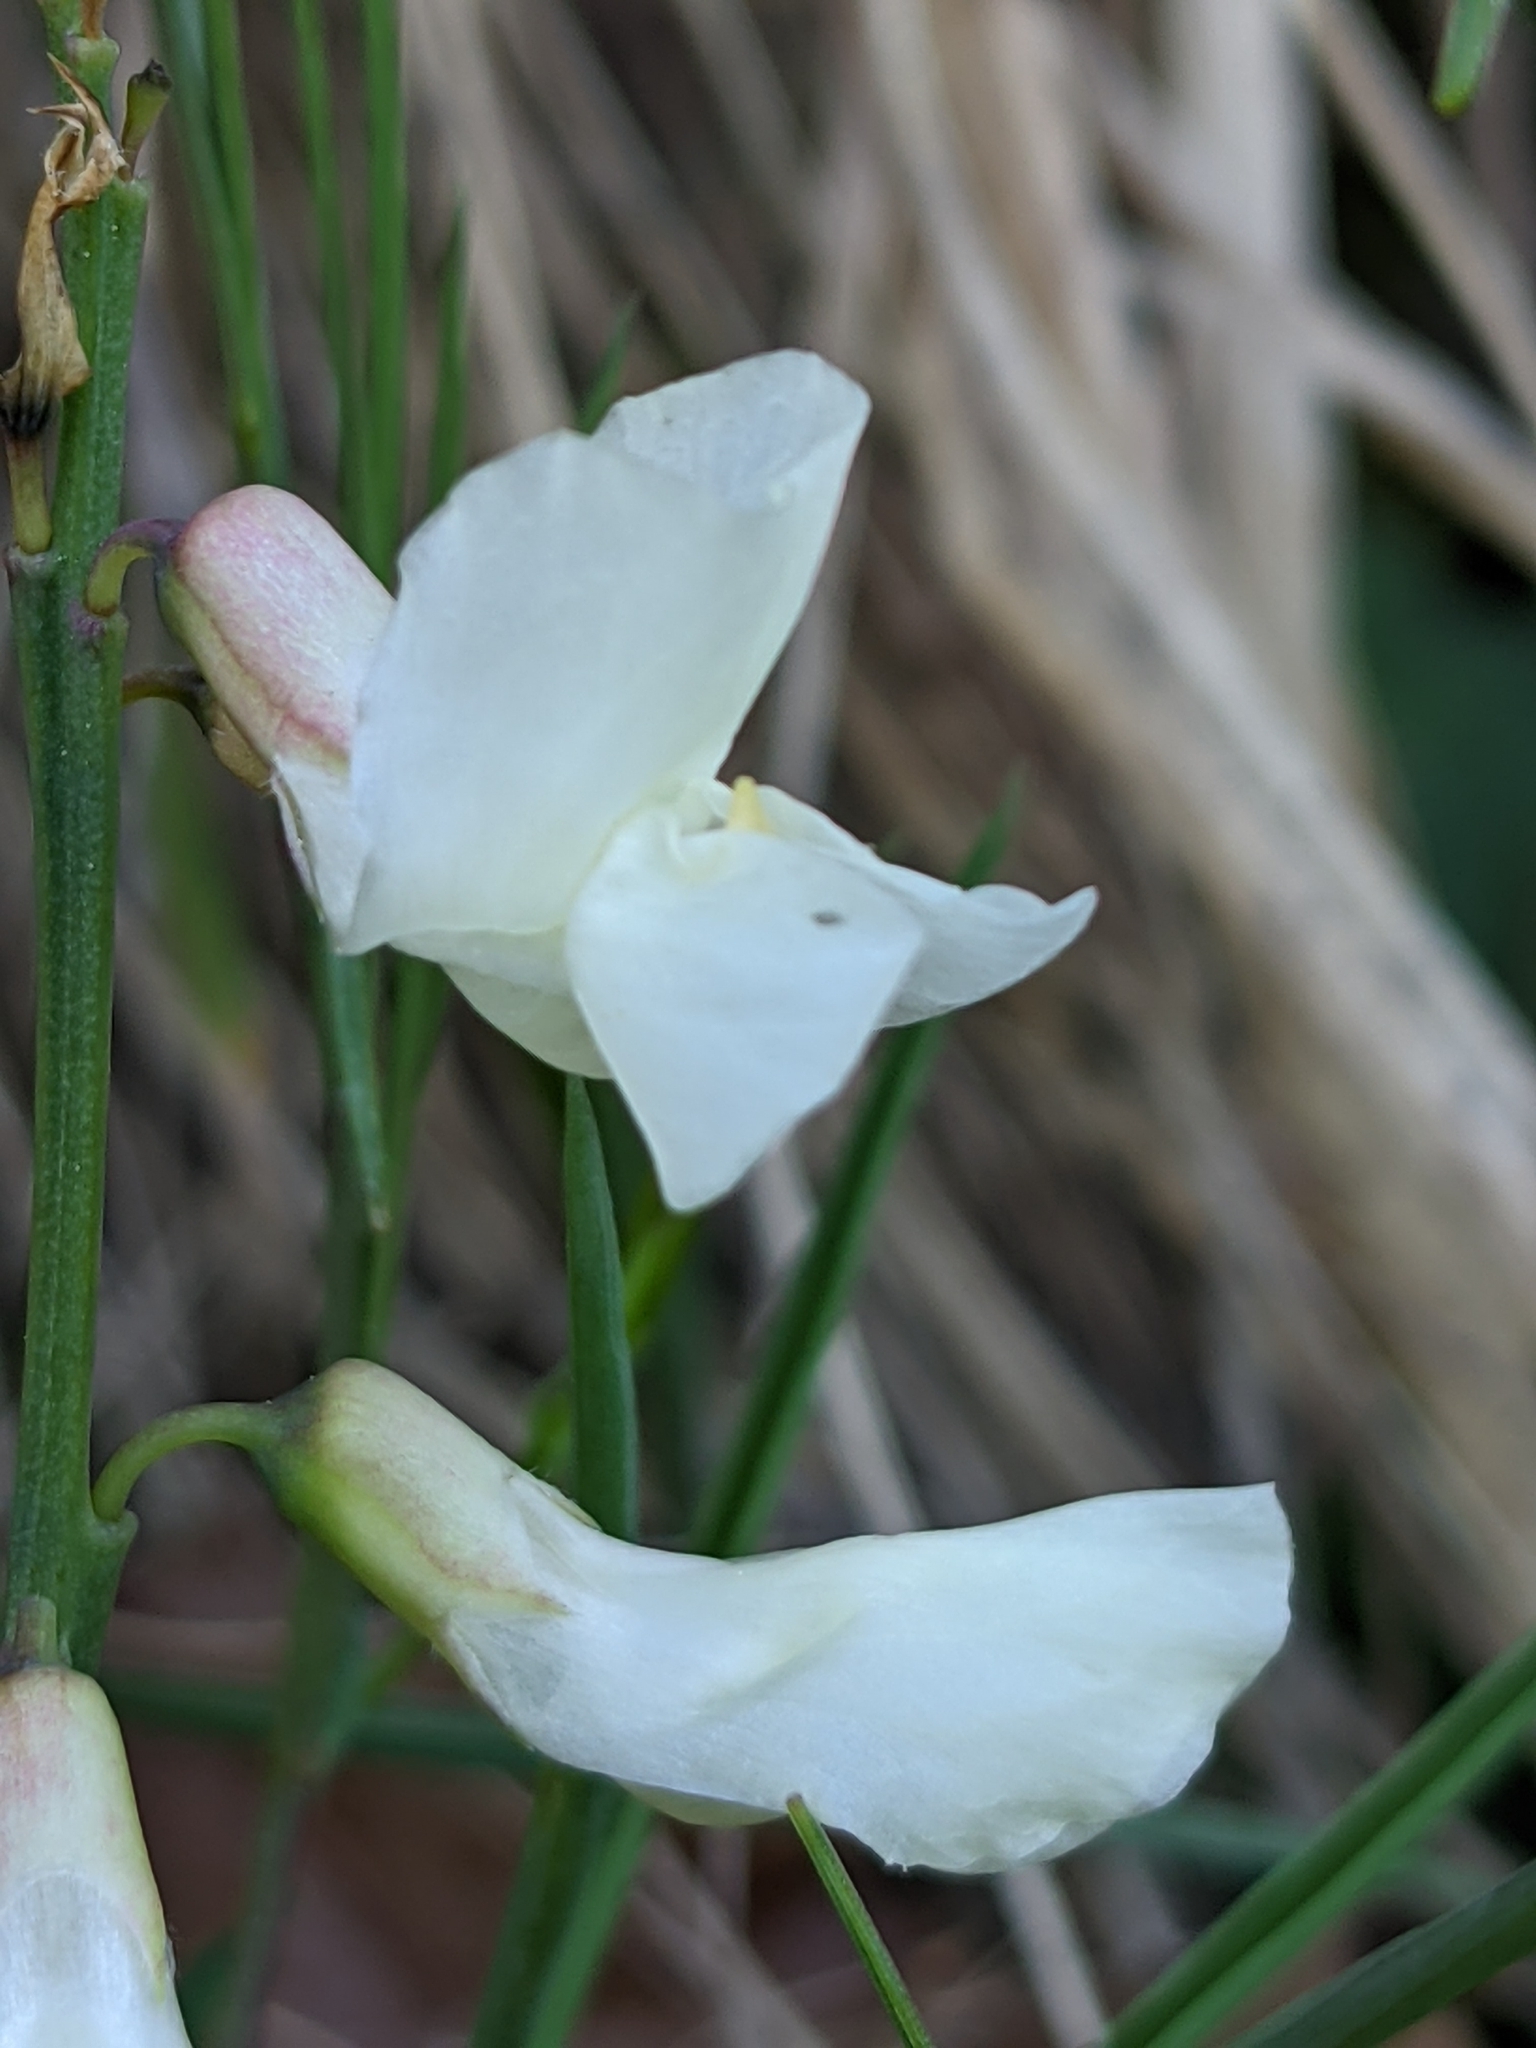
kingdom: Plantae
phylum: Tracheophyta
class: Magnoliopsida
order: Fabales
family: Fabaceae
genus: Lathyrus
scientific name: Lathyrus pannonicus
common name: Pea
